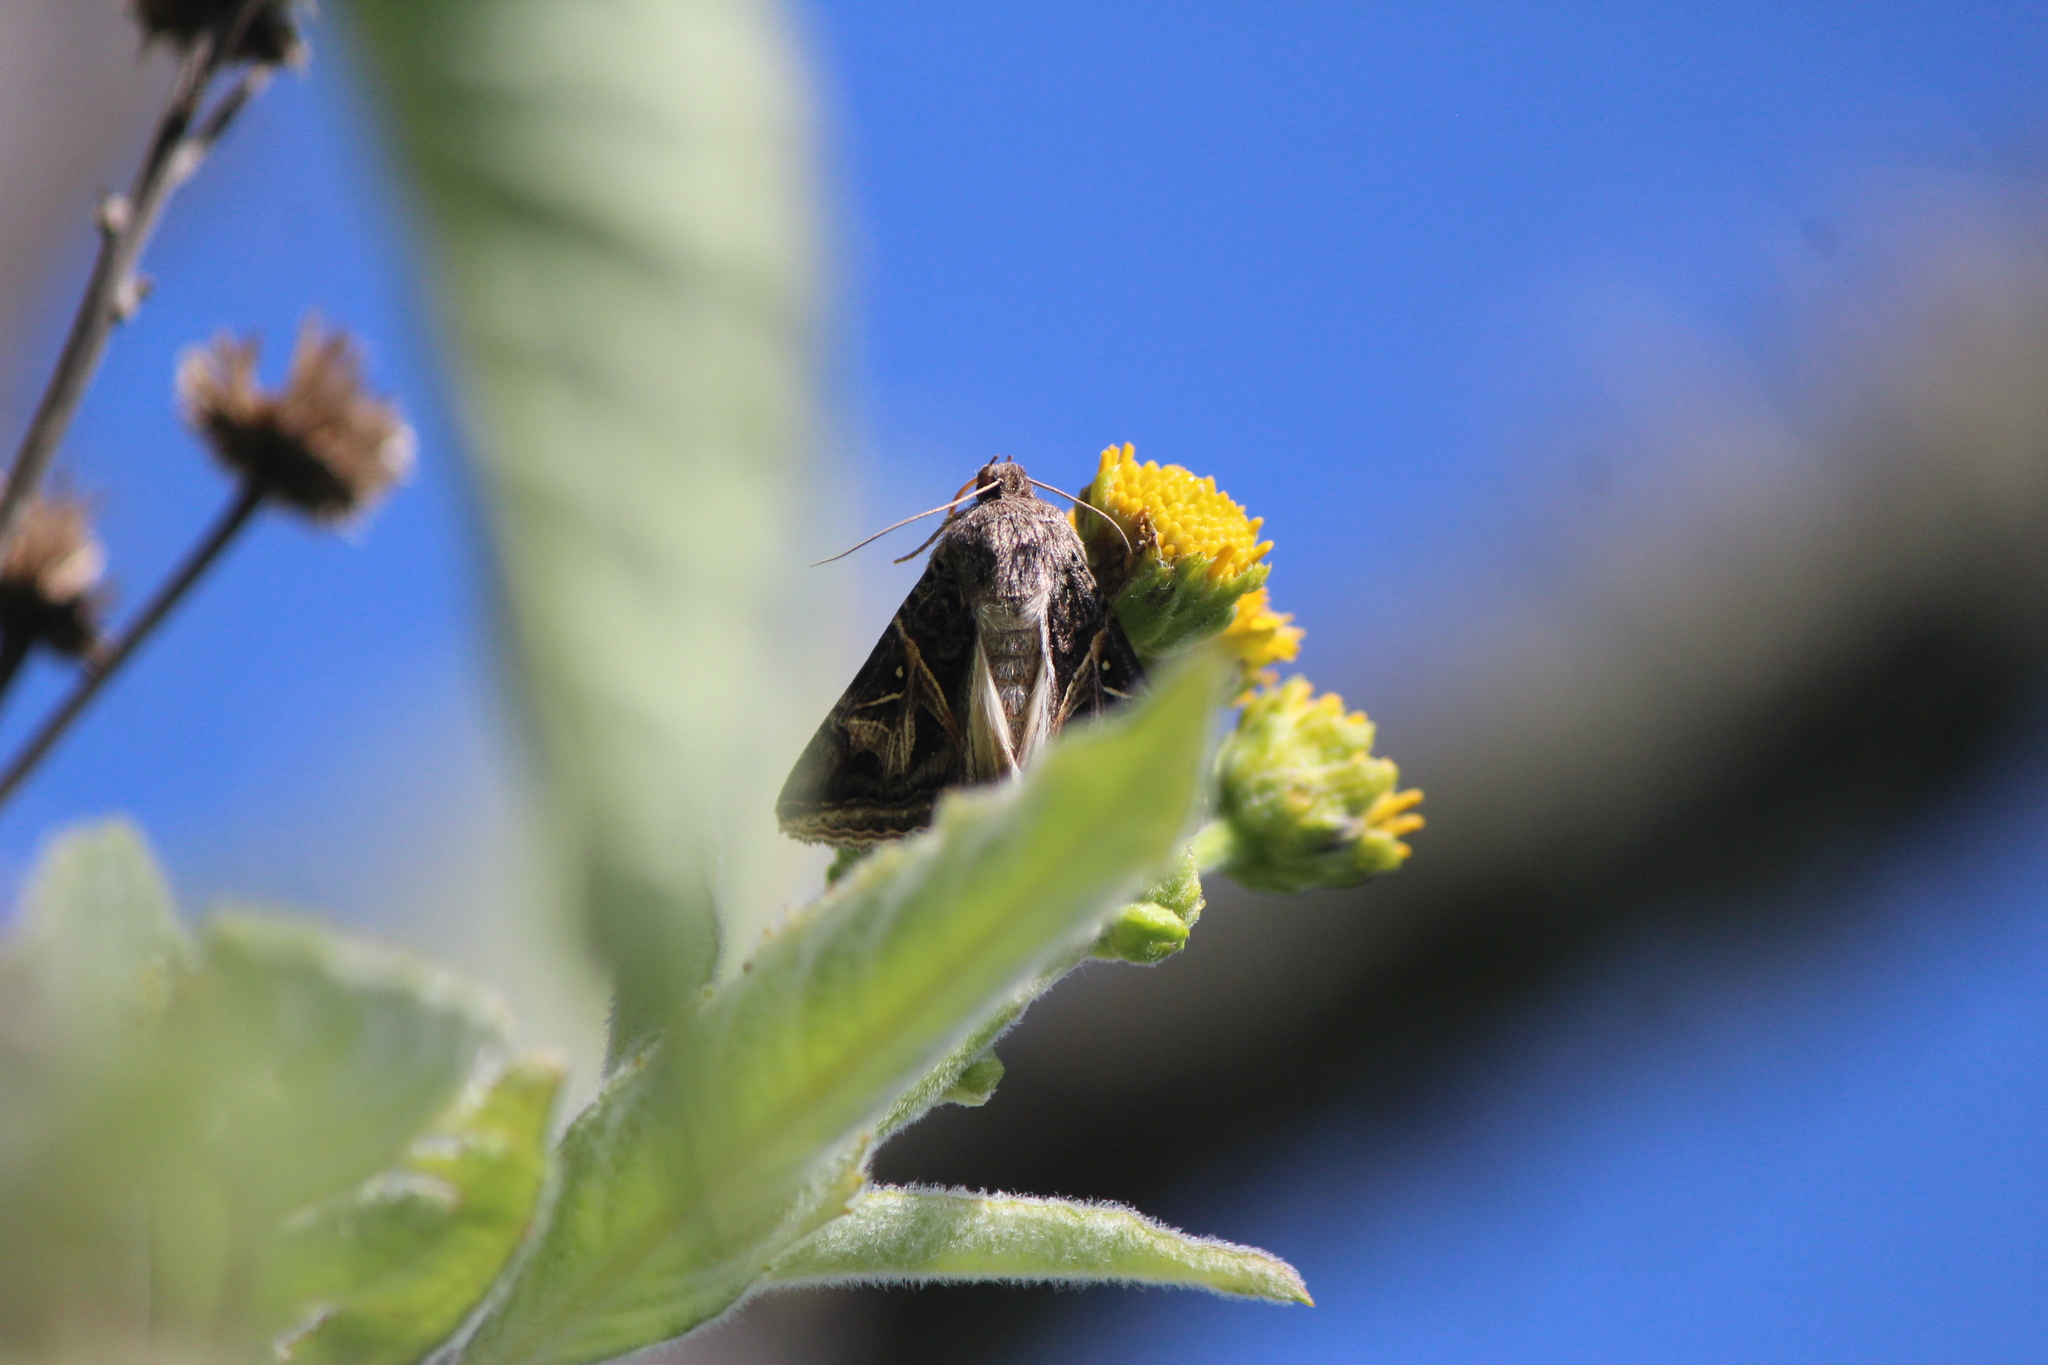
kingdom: Animalia
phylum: Arthropoda
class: Insecta
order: Lepidoptera
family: Erebidae
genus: Ianius
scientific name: Ianius mosca
